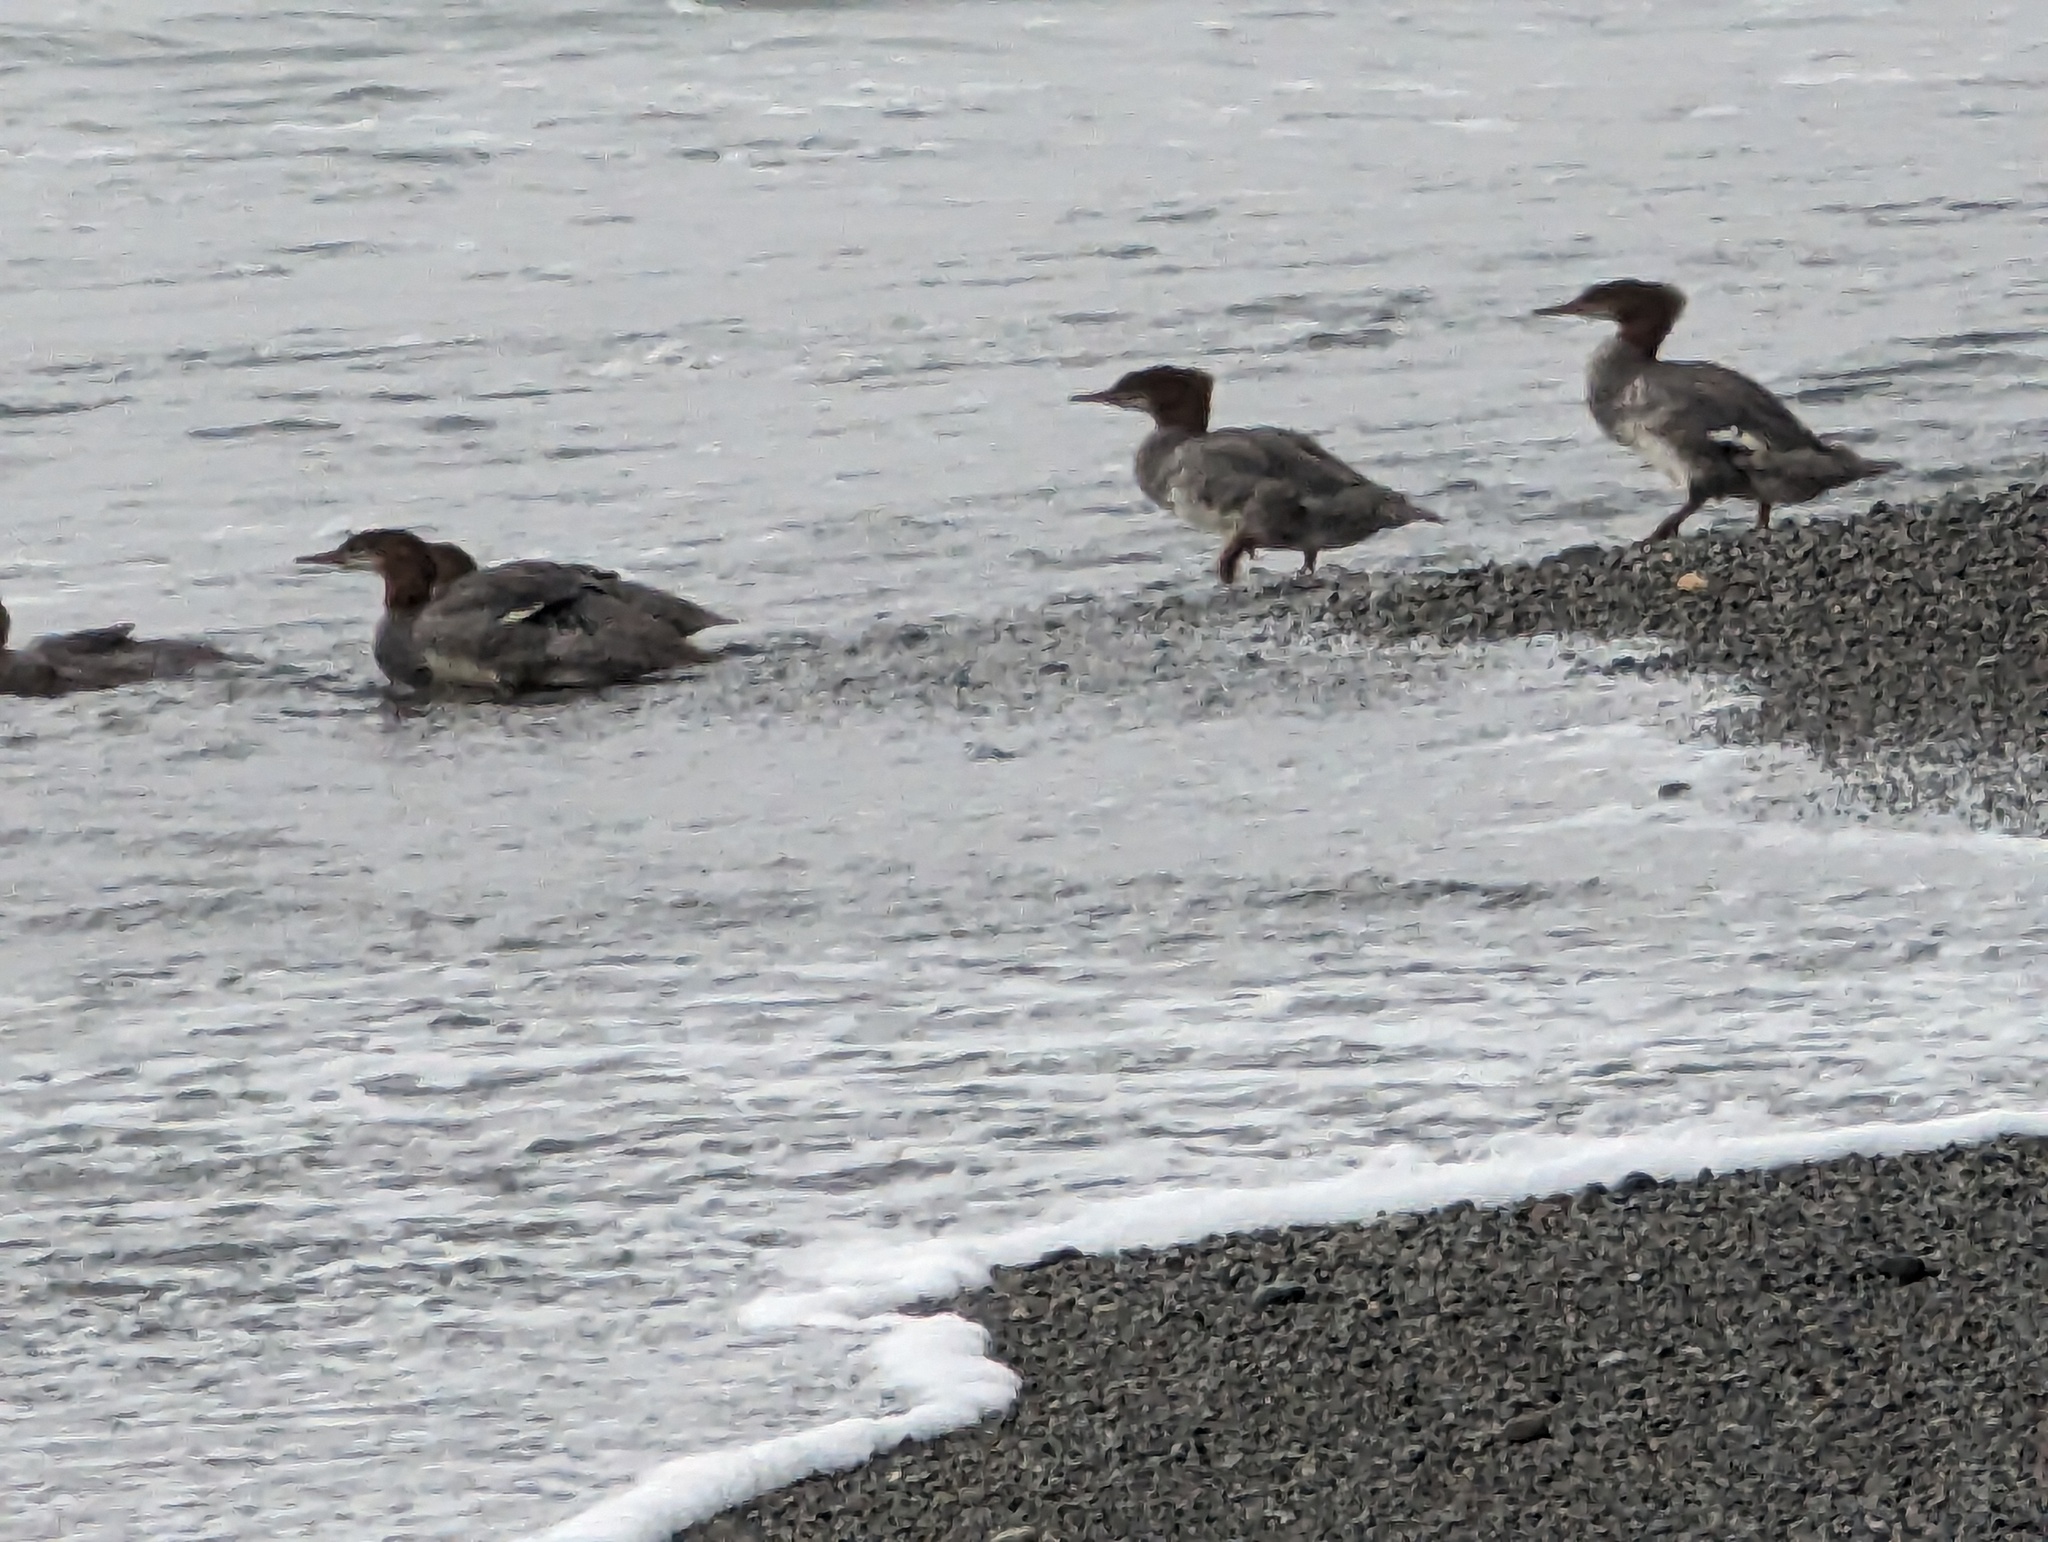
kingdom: Animalia
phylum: Chordata
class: Aves
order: Anseriformes
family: Anatidae
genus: Mergus
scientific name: Mergus merganser
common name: Common merganser
